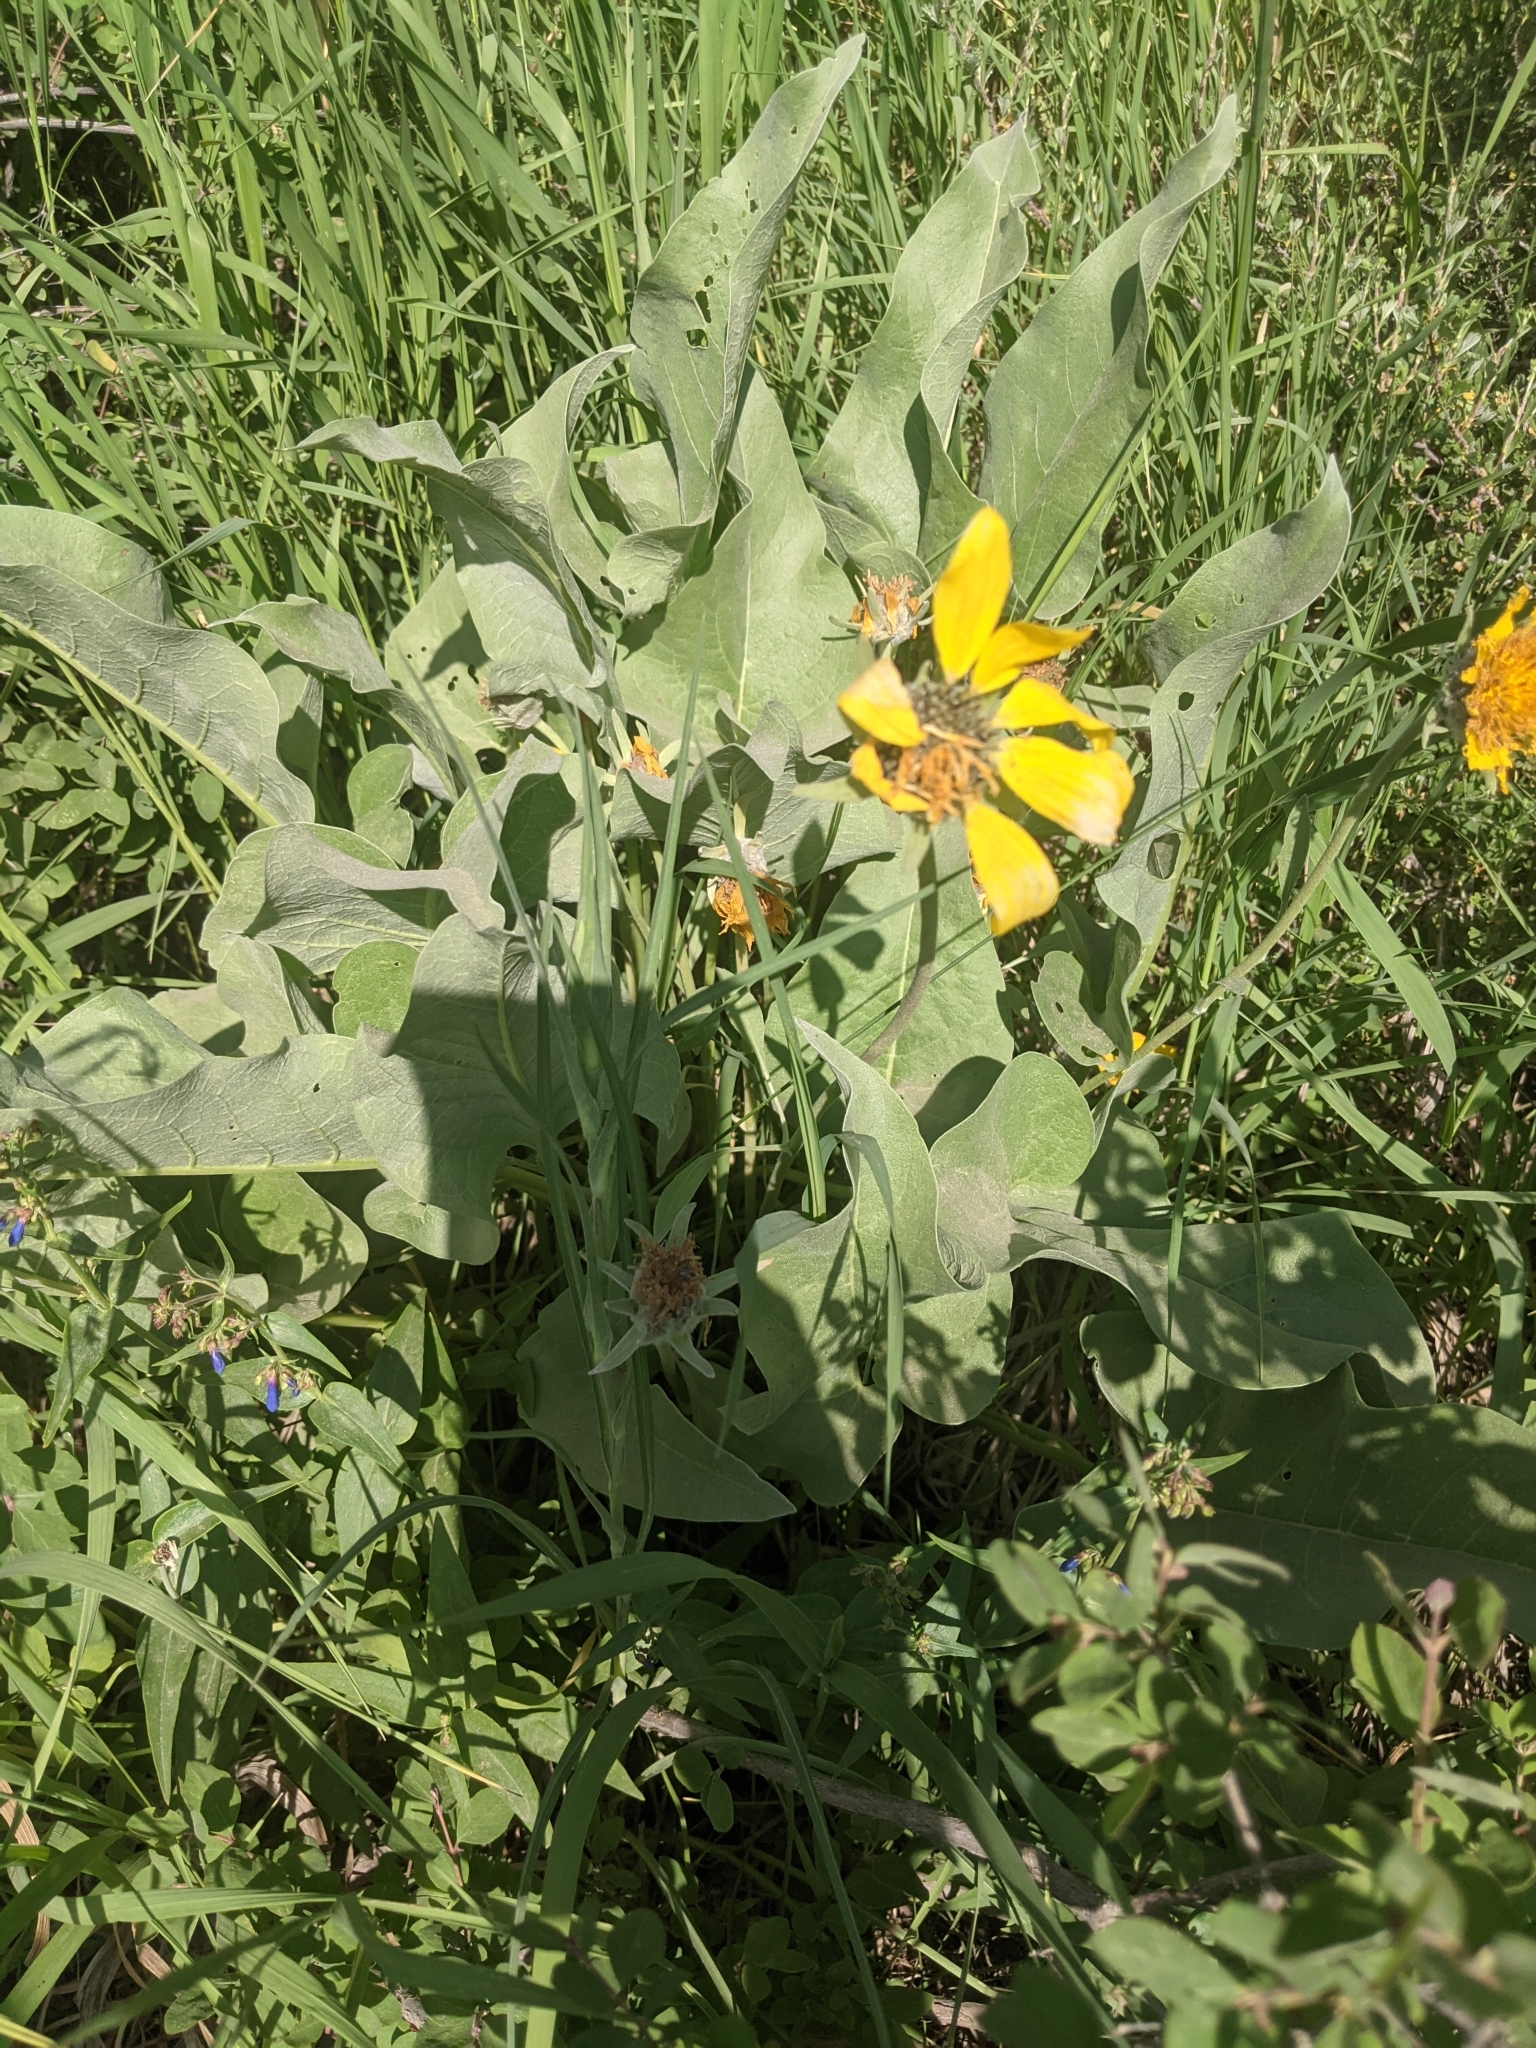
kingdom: Plantae
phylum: Tracheophyta
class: Magnoliopsida
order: Asterales
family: Asteraceae
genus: Wyethia
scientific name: Wyethia sagittata
